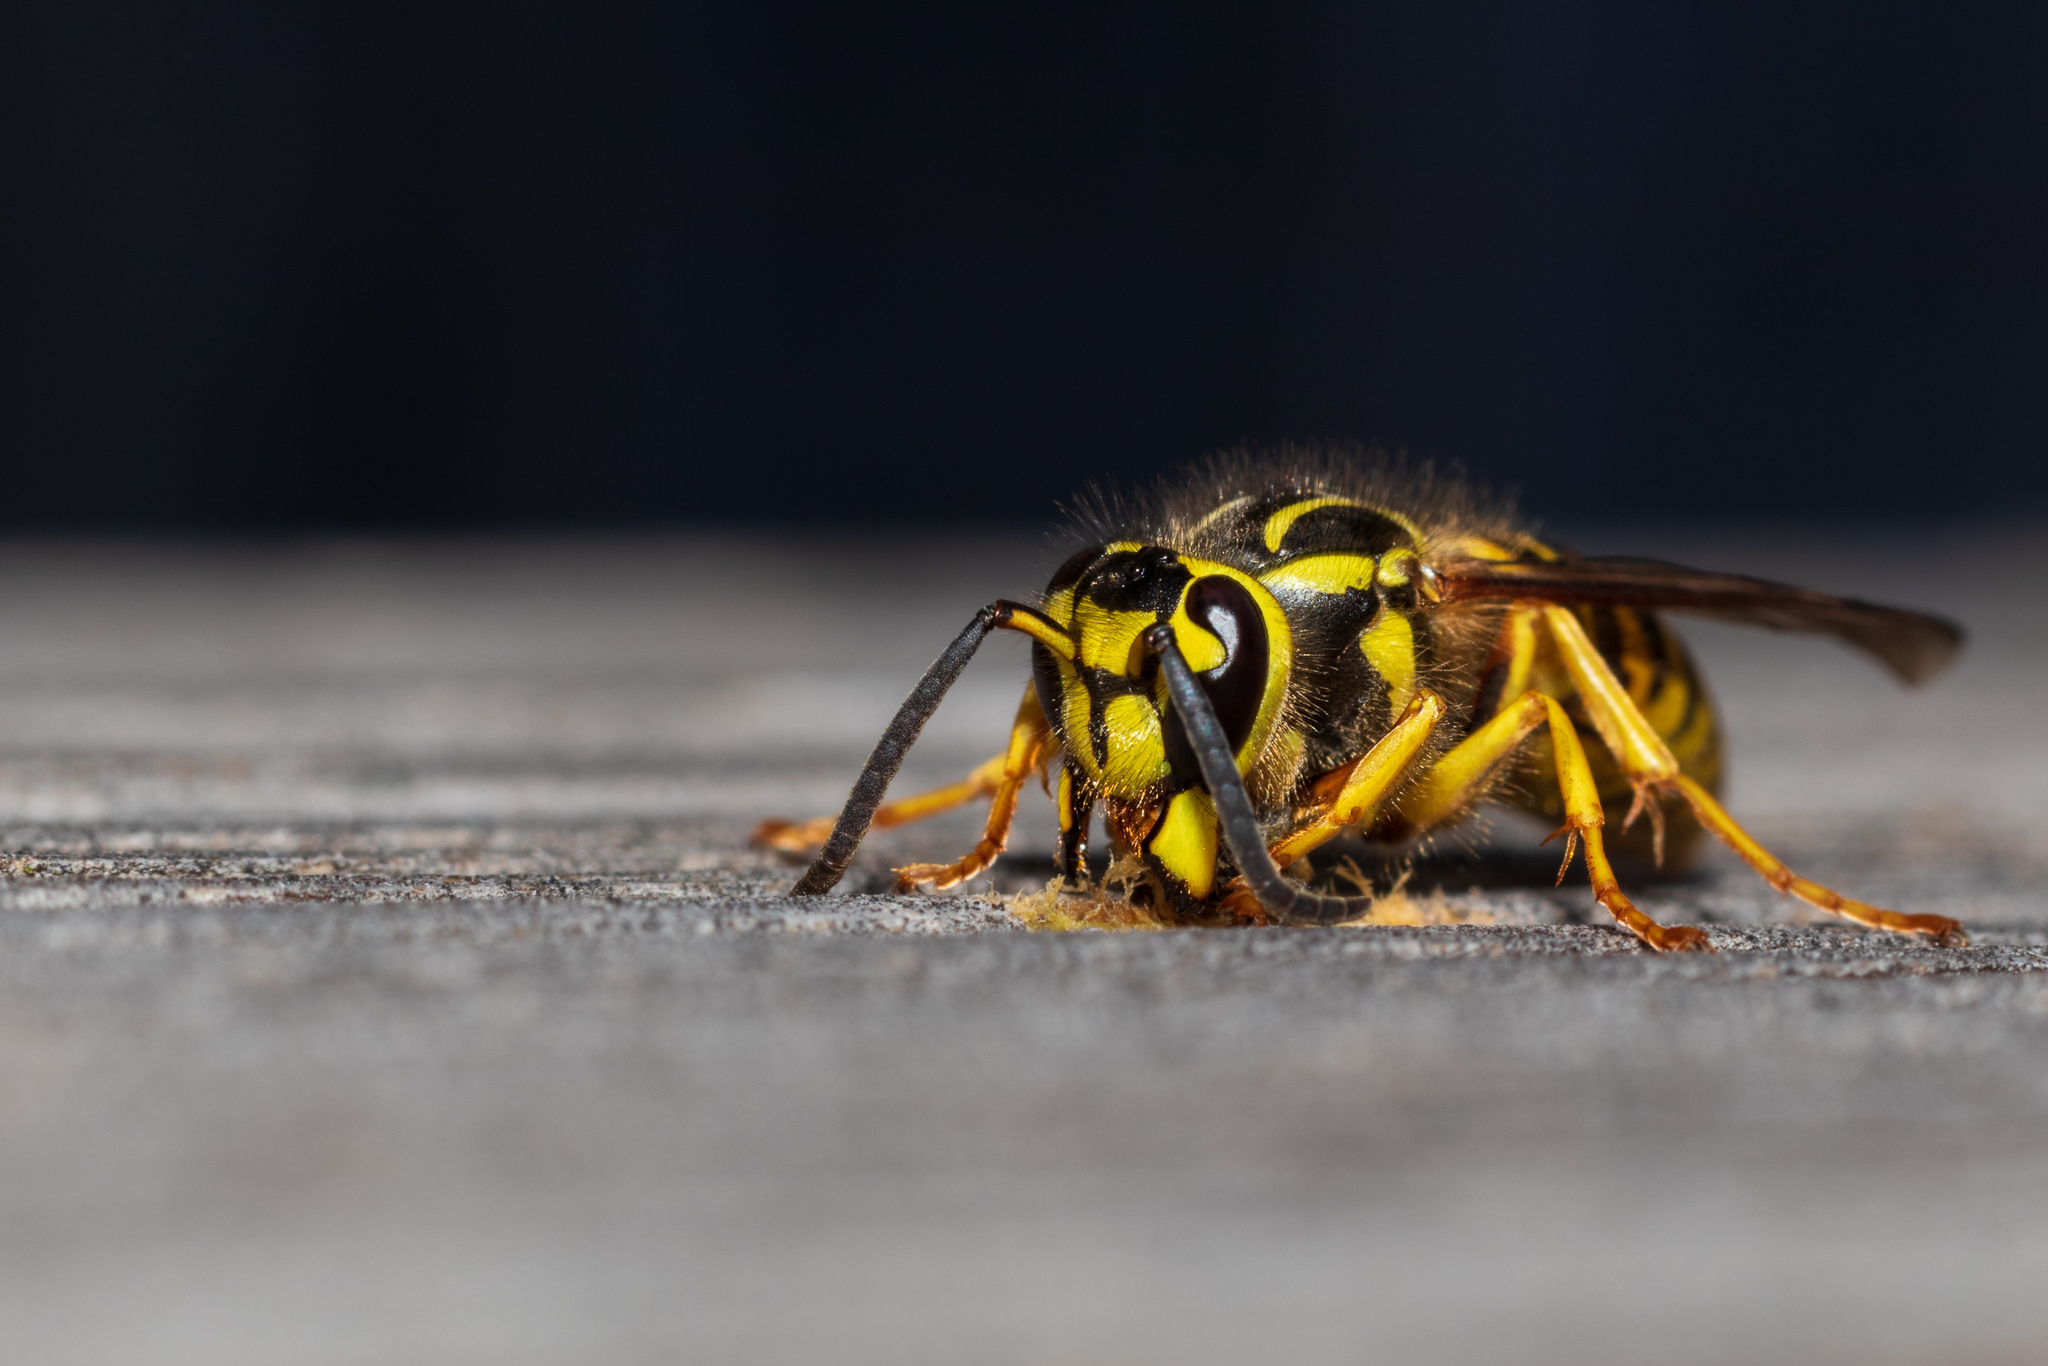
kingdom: Animalia
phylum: Arthropoda
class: Insecta
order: Hymenoptera
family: Vespidae
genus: Vespula
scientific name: Vespula squamosa
